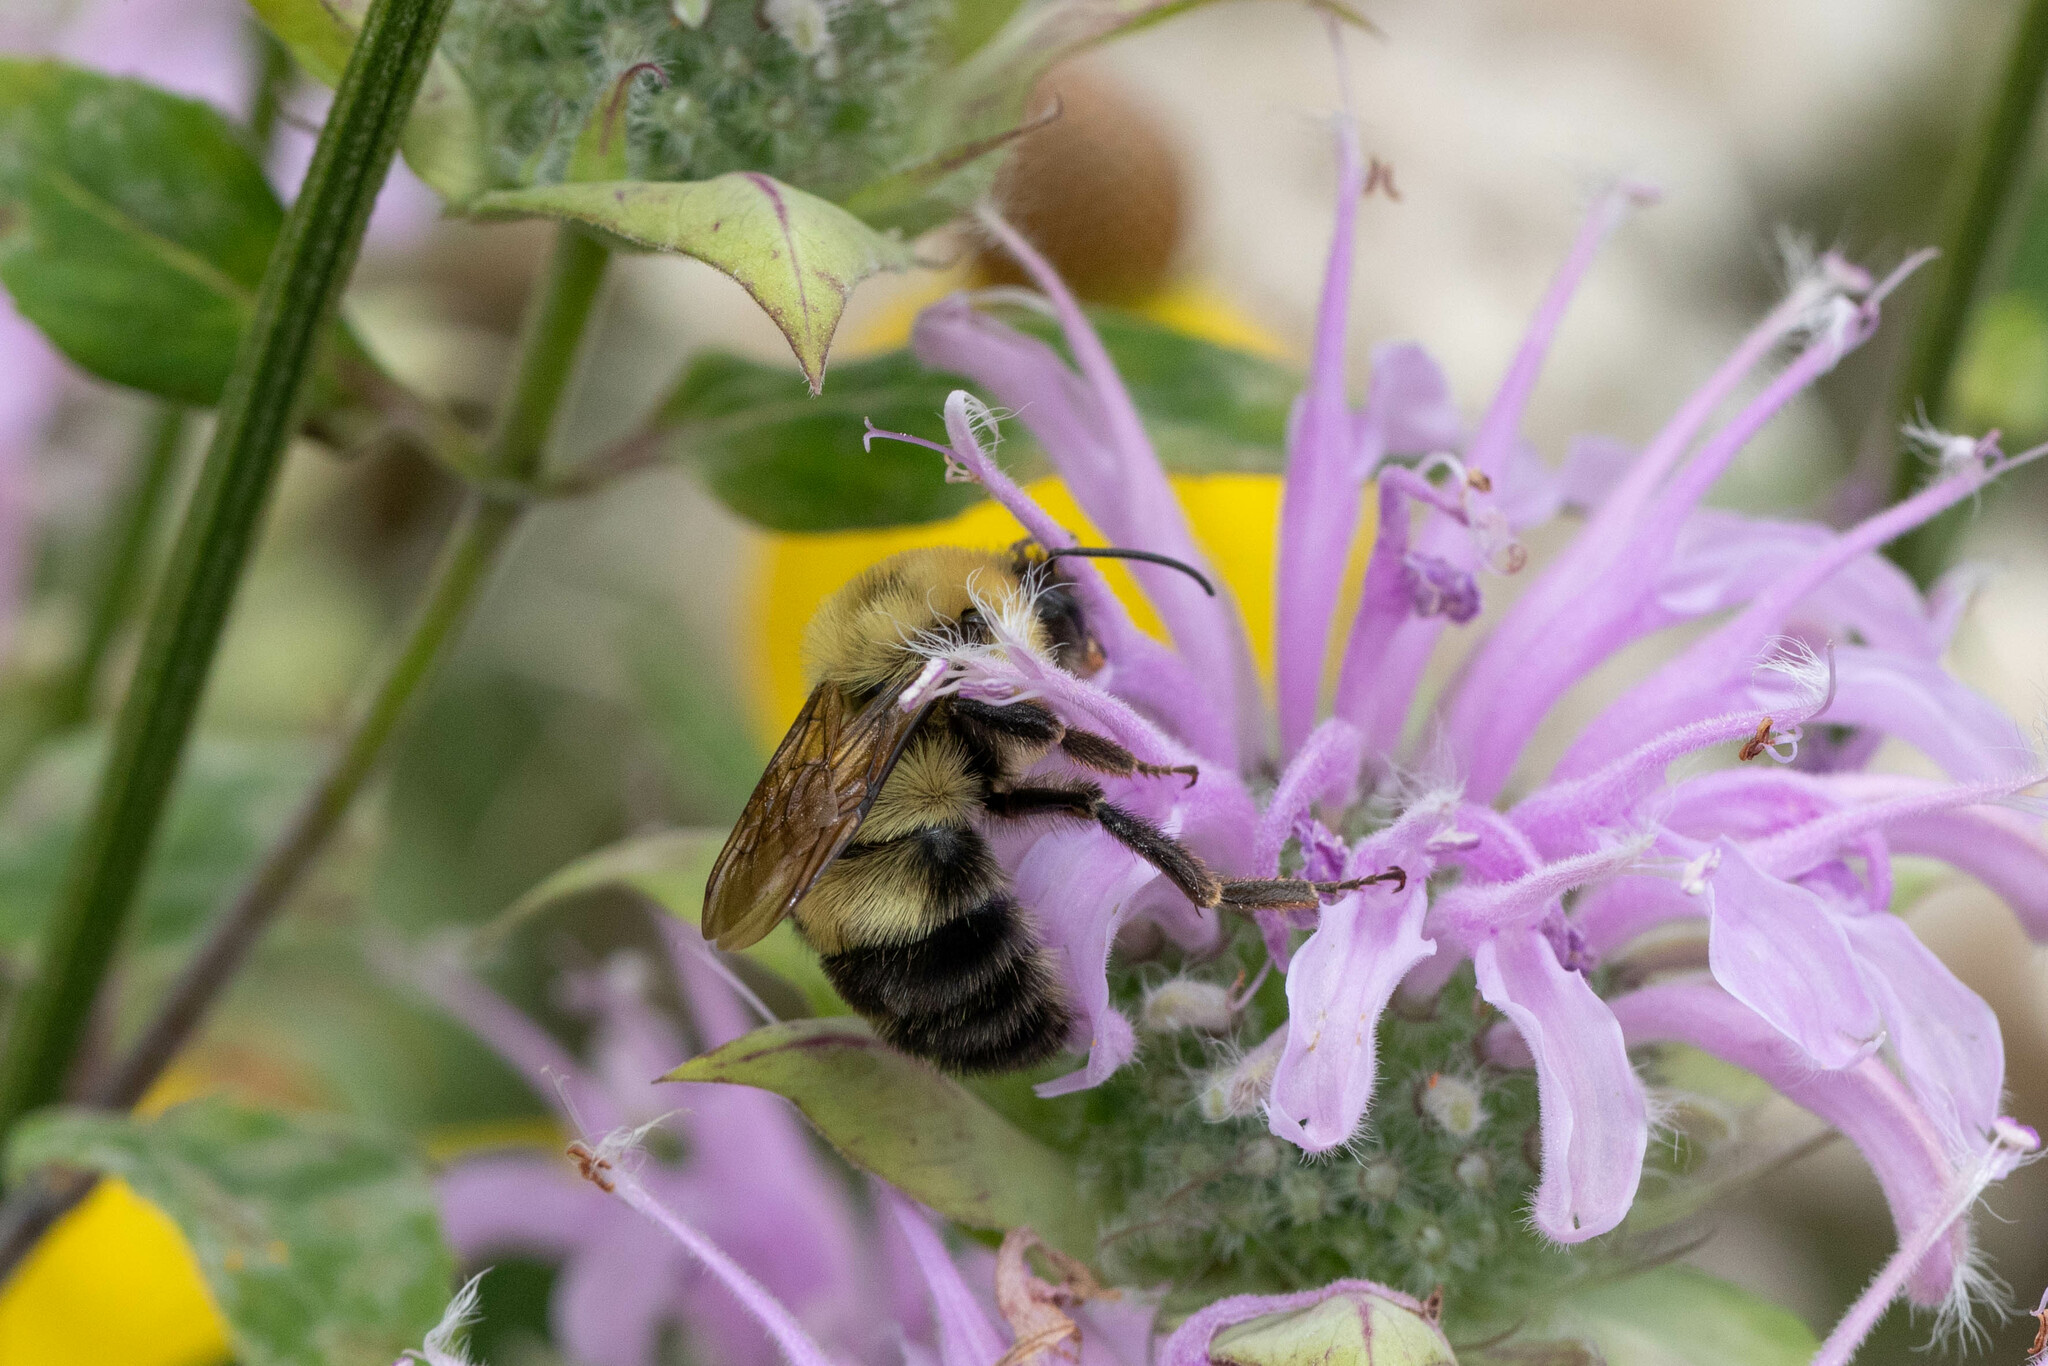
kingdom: Animalia
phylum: Arthropoda
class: Insecta
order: Hymenoptera
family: Apidae
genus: Bombus
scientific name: Bombus bimaculatus
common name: Two-spotted bumble bee
